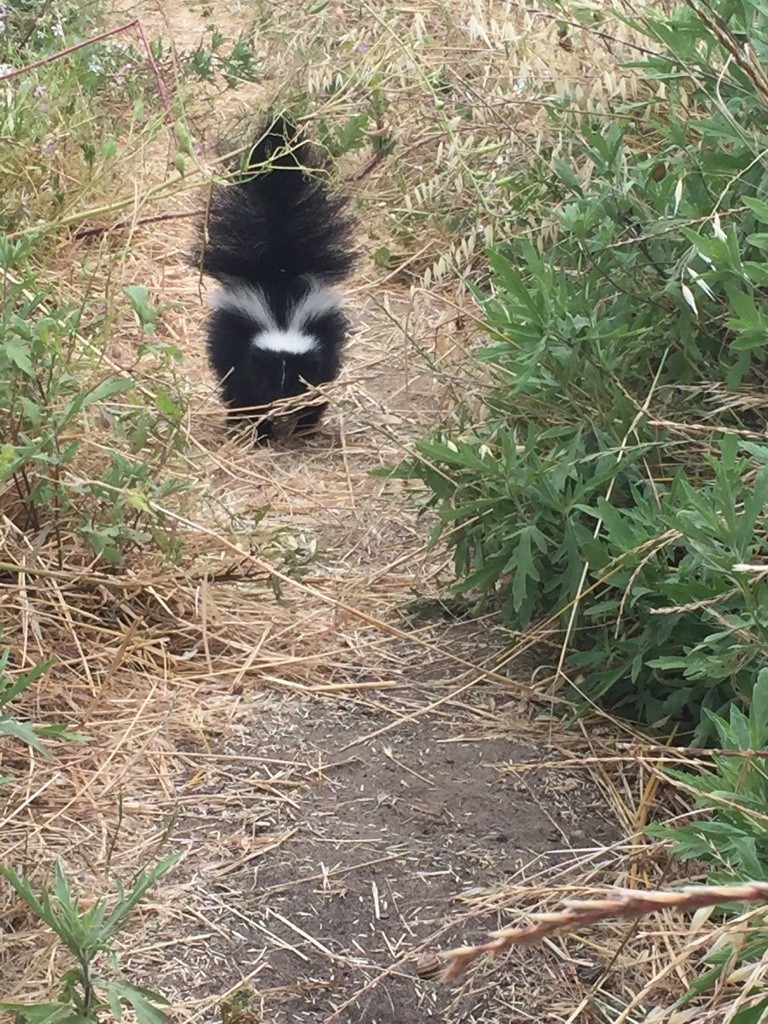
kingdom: Animalia
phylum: Chordata
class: Mammalia
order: Carnivora
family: Mephitidae
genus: Mephitis
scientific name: Mephitis mephitis
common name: Striped skunk
